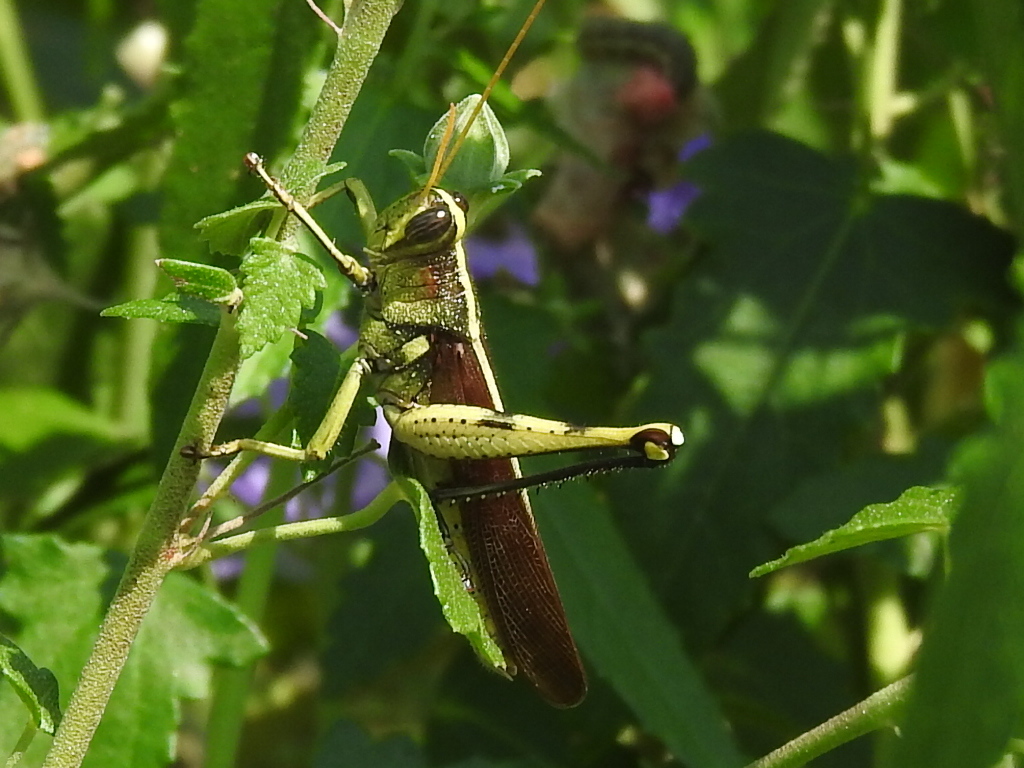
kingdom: Animalia
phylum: Arthropoda
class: Insecta
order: Orthoptera
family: Acrididae
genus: Schistocerca
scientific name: Schistocerca obscura
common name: Obscure bird grasshopper
